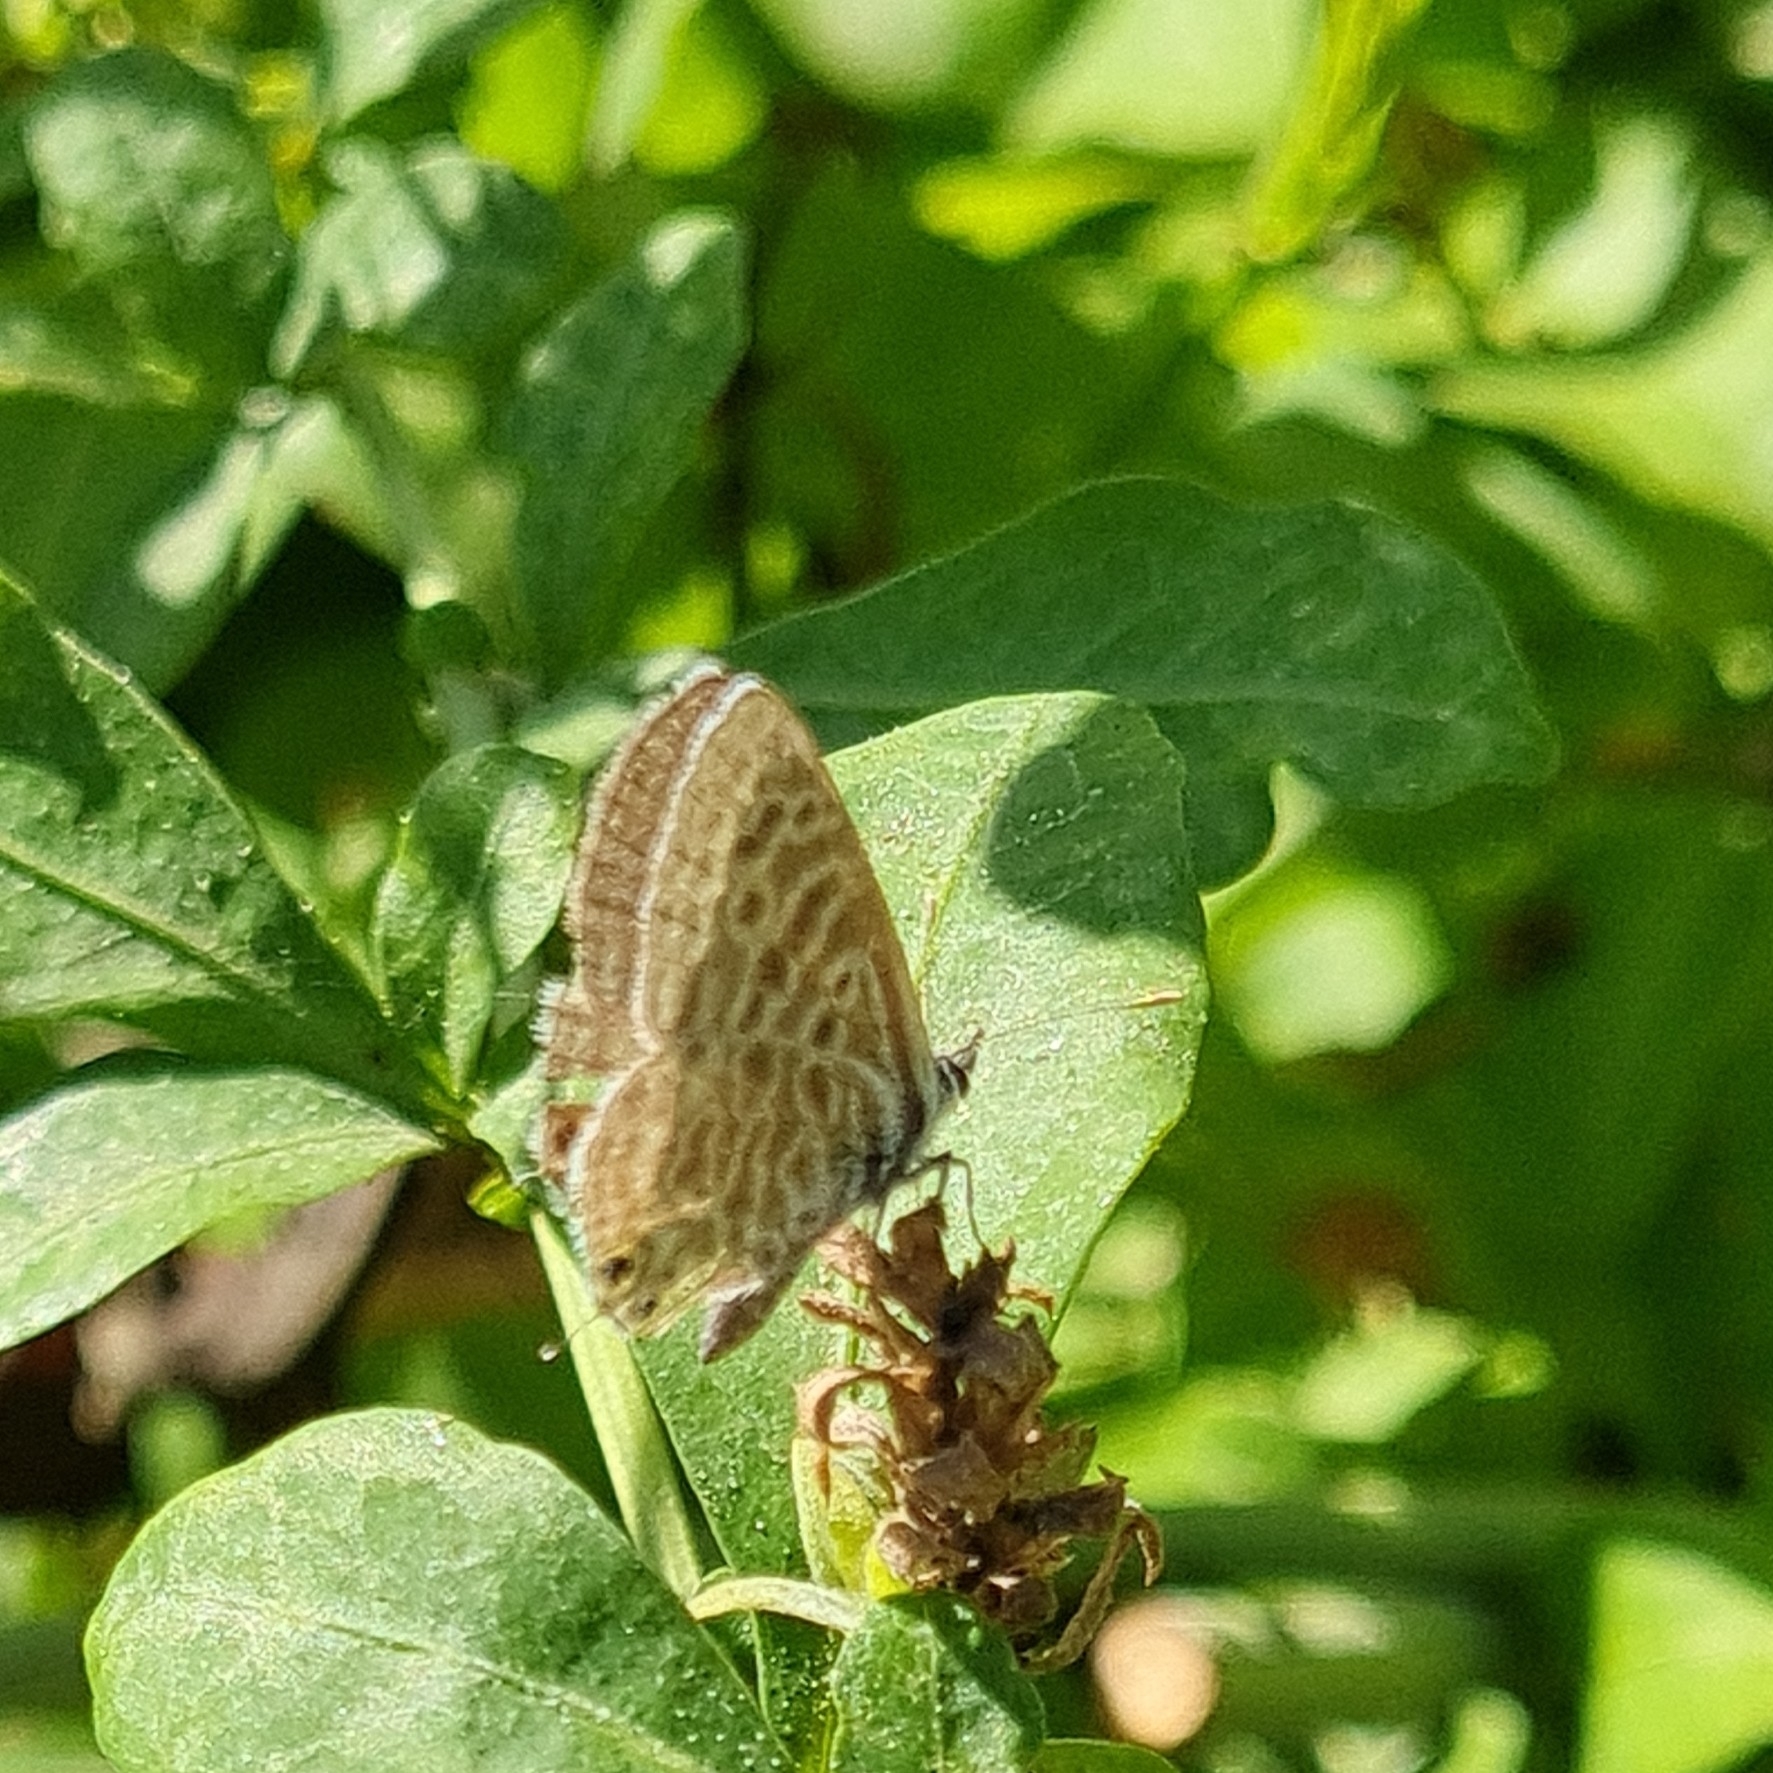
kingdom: Animalia
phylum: Arthropoda
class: Insecta
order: Lepidoptera
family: Lycaenidae
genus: Leptotes
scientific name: Leptotes pirithous
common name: Lang's short-tailed blue
